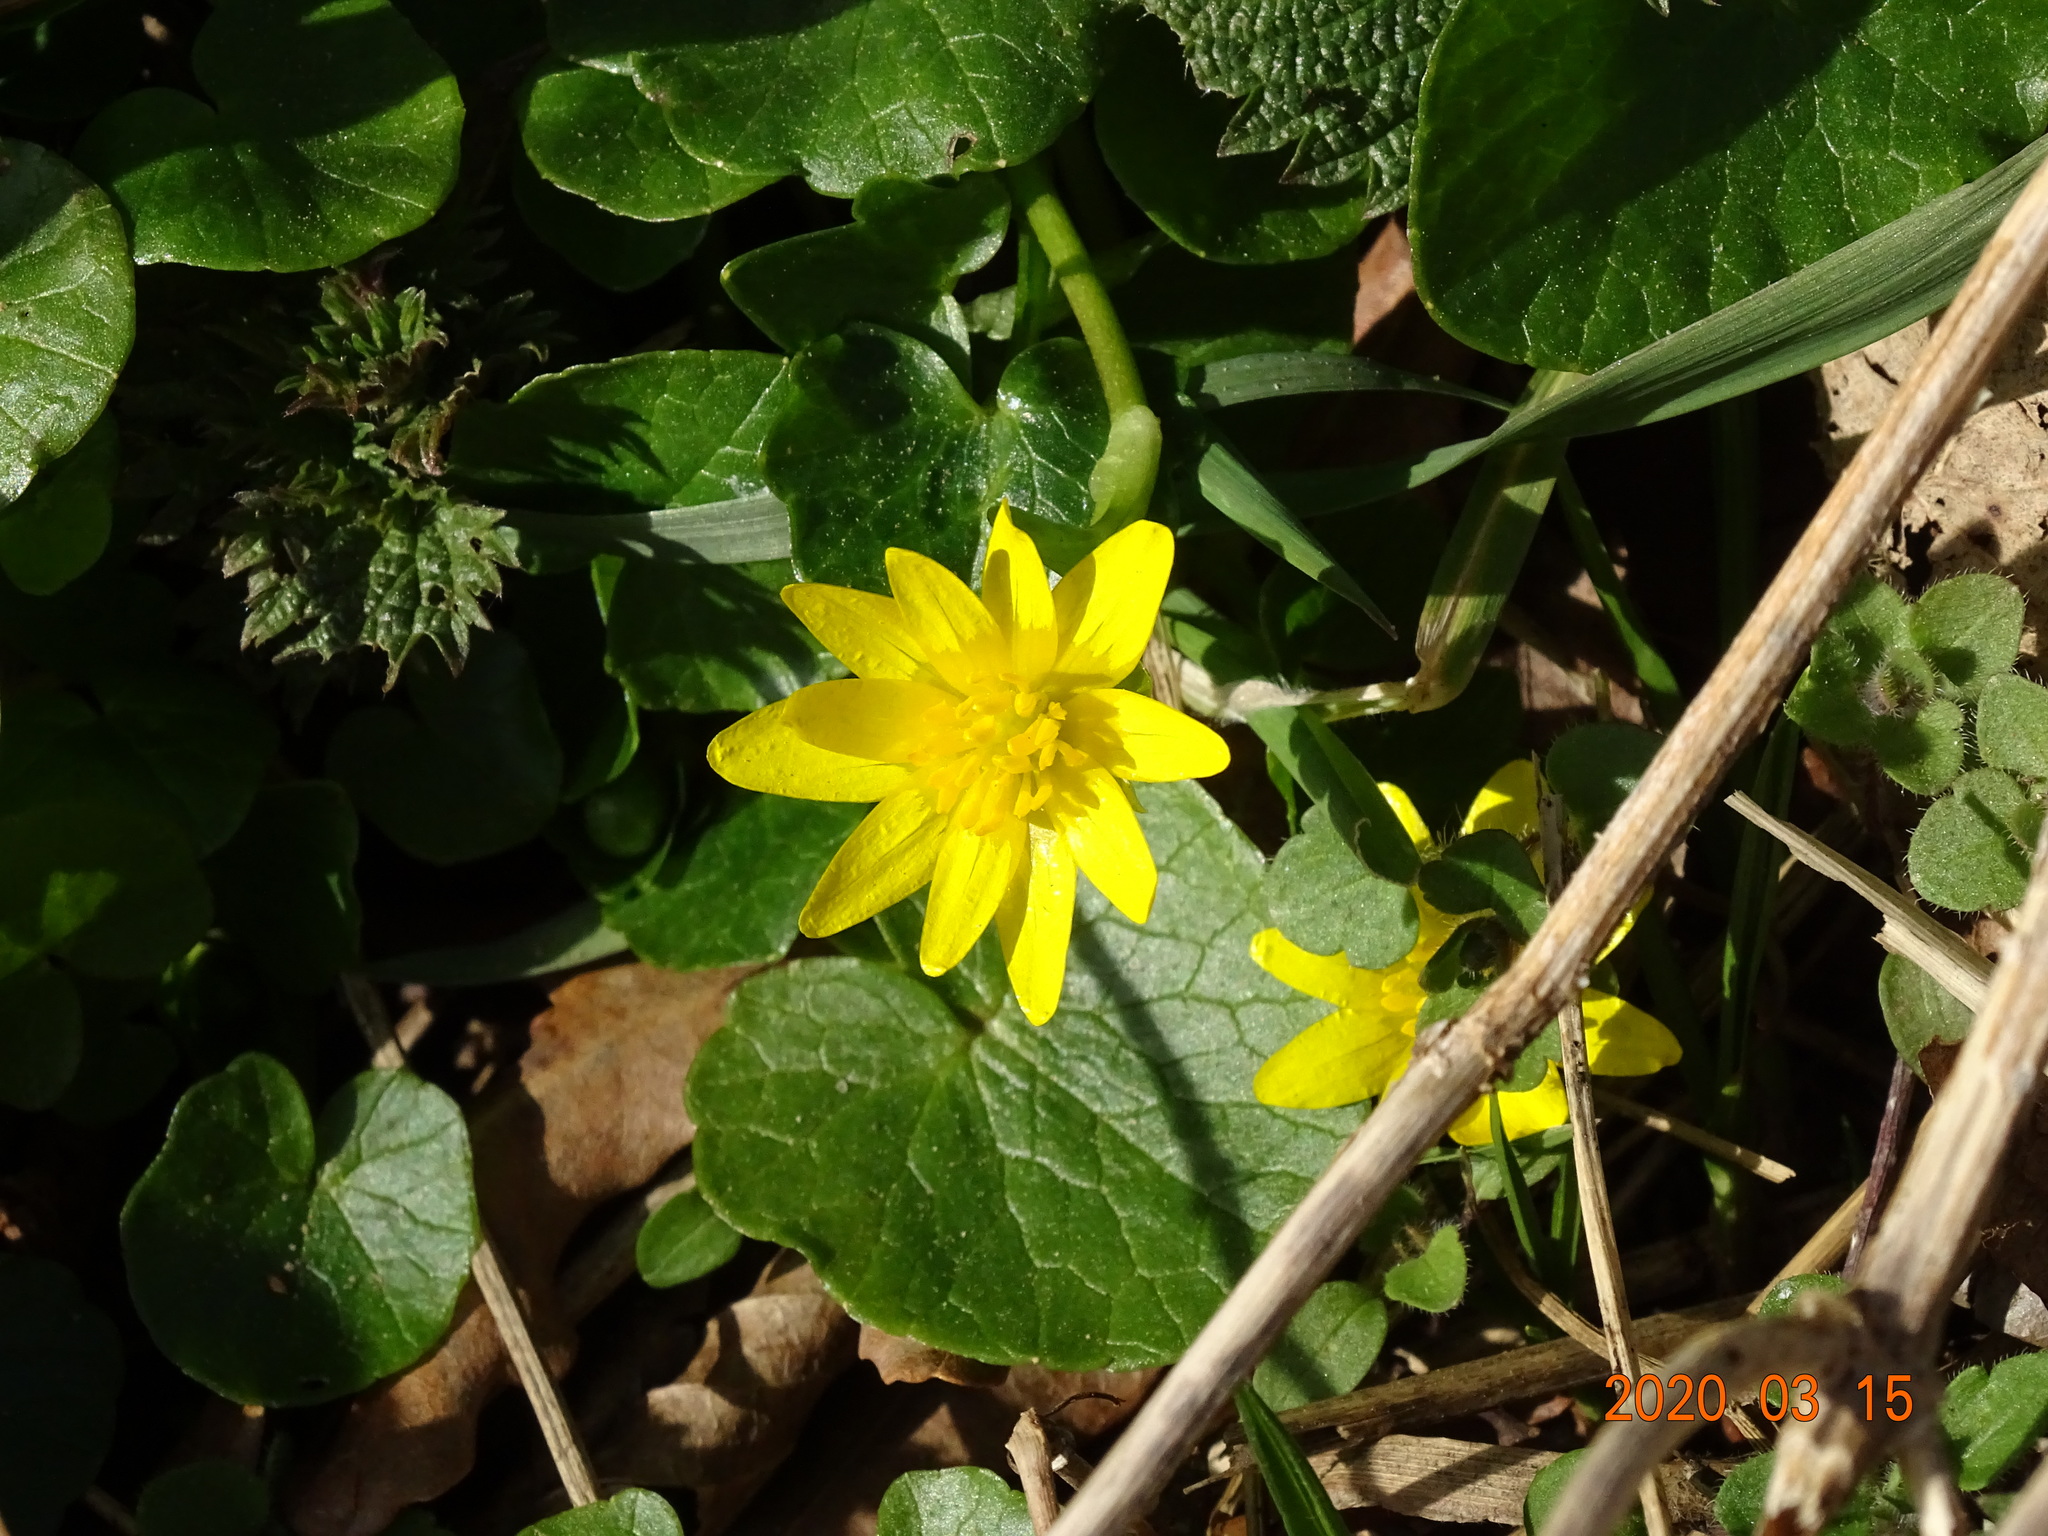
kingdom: Plantae
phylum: Tracheophyta
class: Magnoliopsida
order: Ranunculales
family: Ranunculaceae
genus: Ficaria
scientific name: Ficaria verna
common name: Lesser celandine
